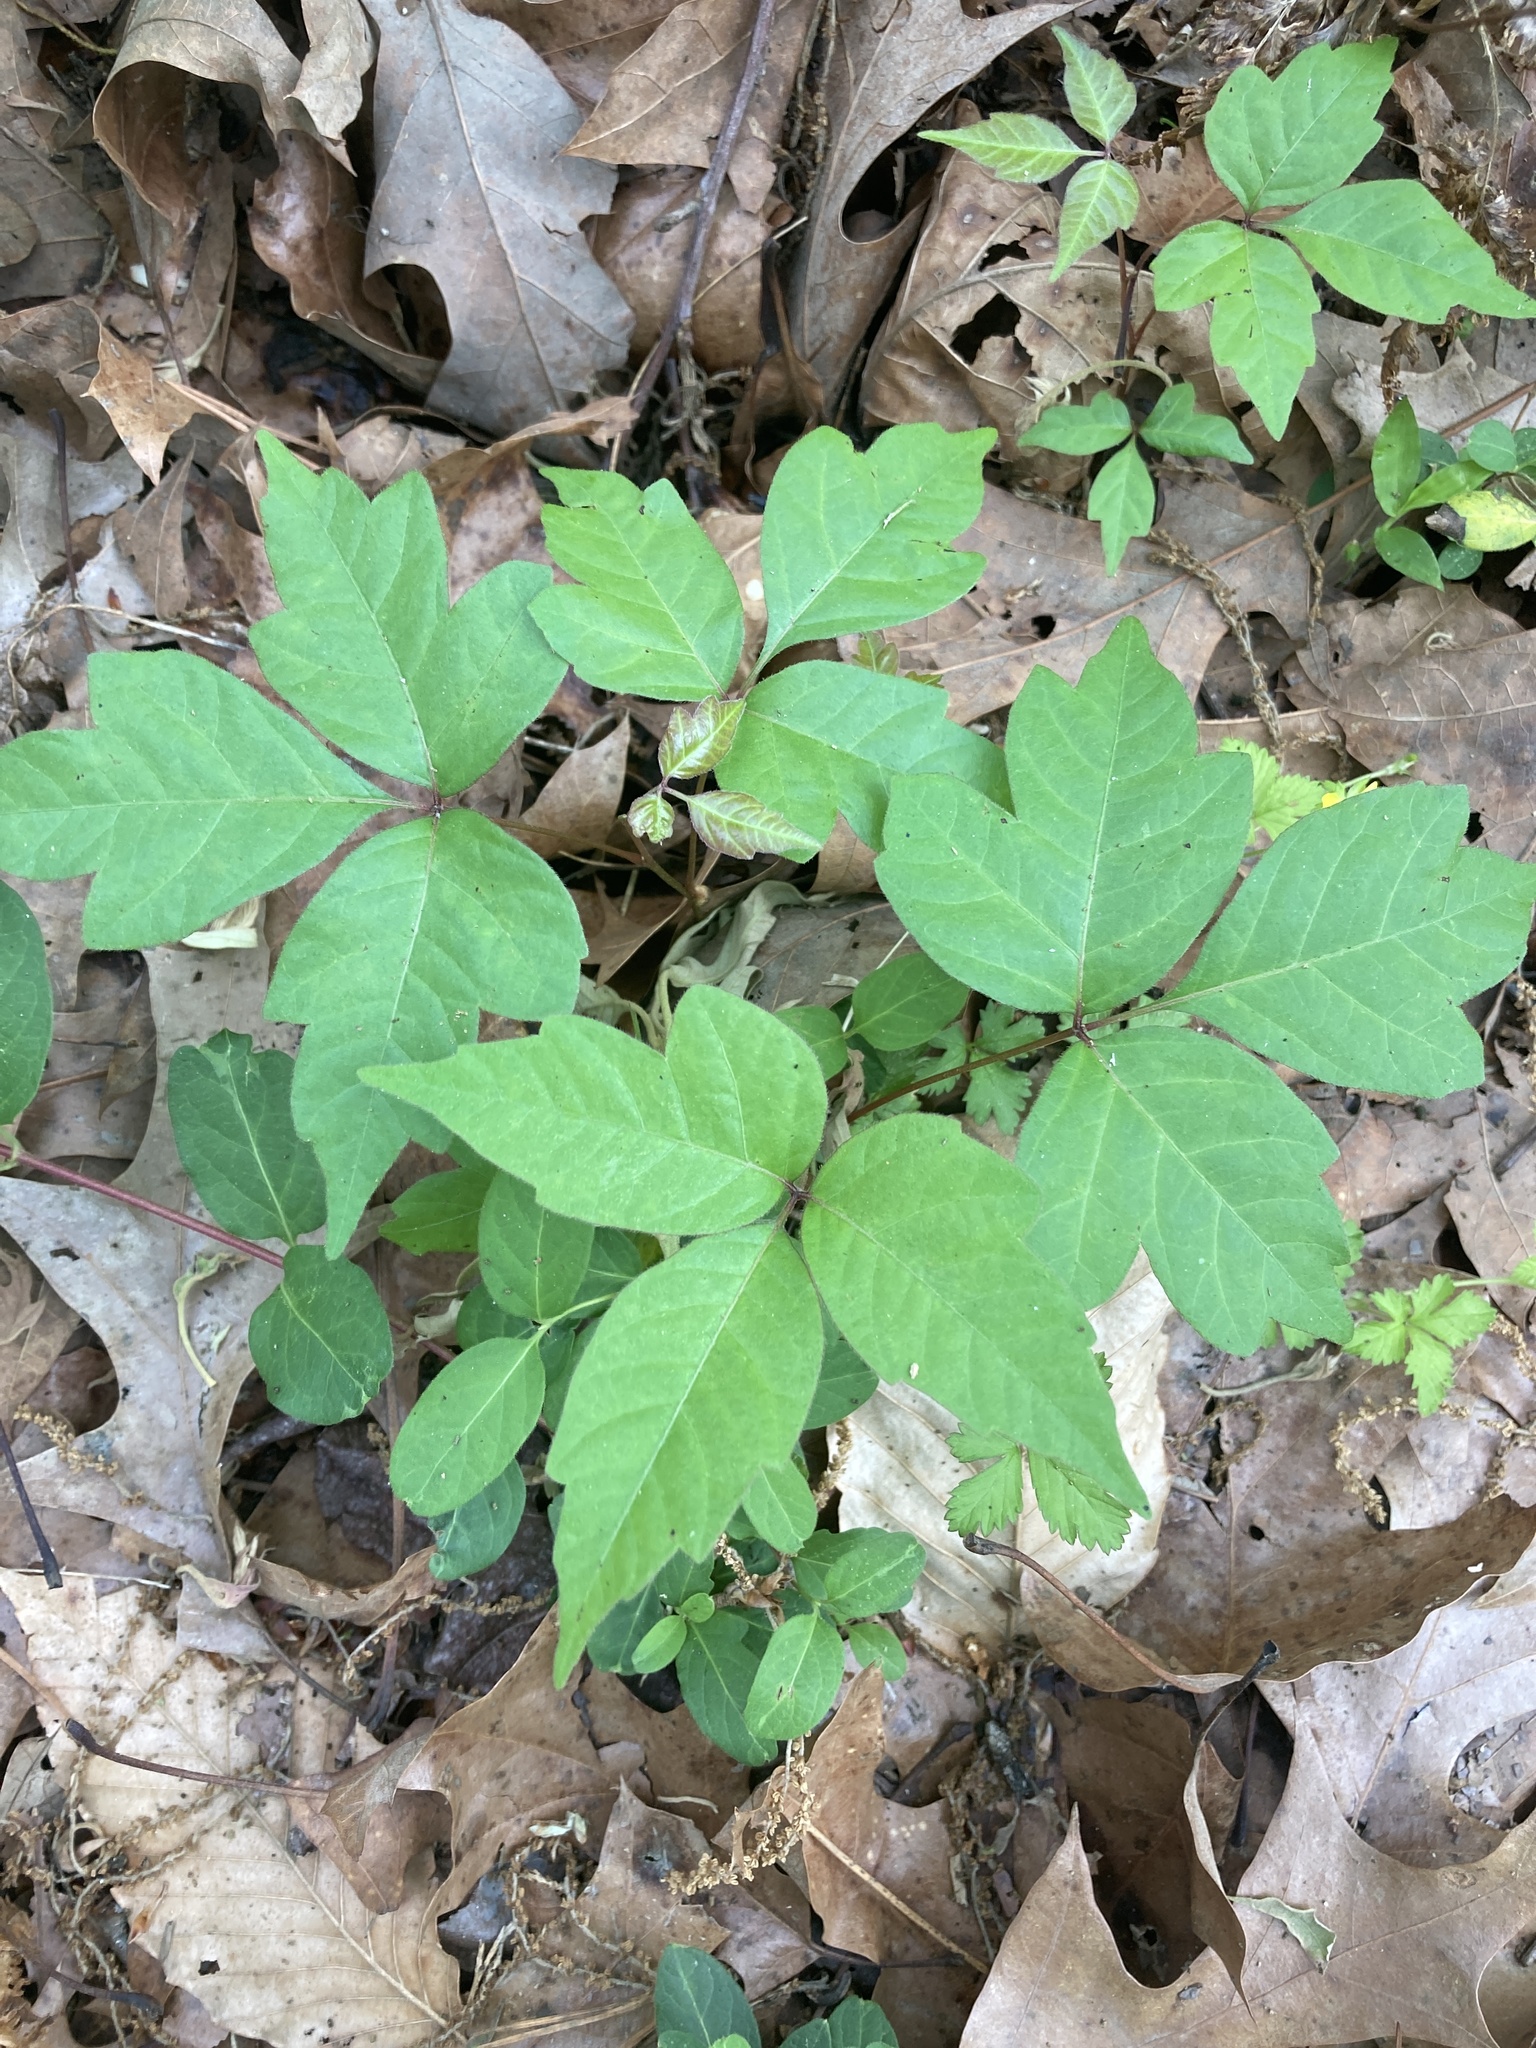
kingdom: Plantae
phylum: Tracheophyta
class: Magnoliopsida
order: Sapindales
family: Anacardiaceae
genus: Toxicodendron
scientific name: Toxicodendron radicans
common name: Poison ivy
